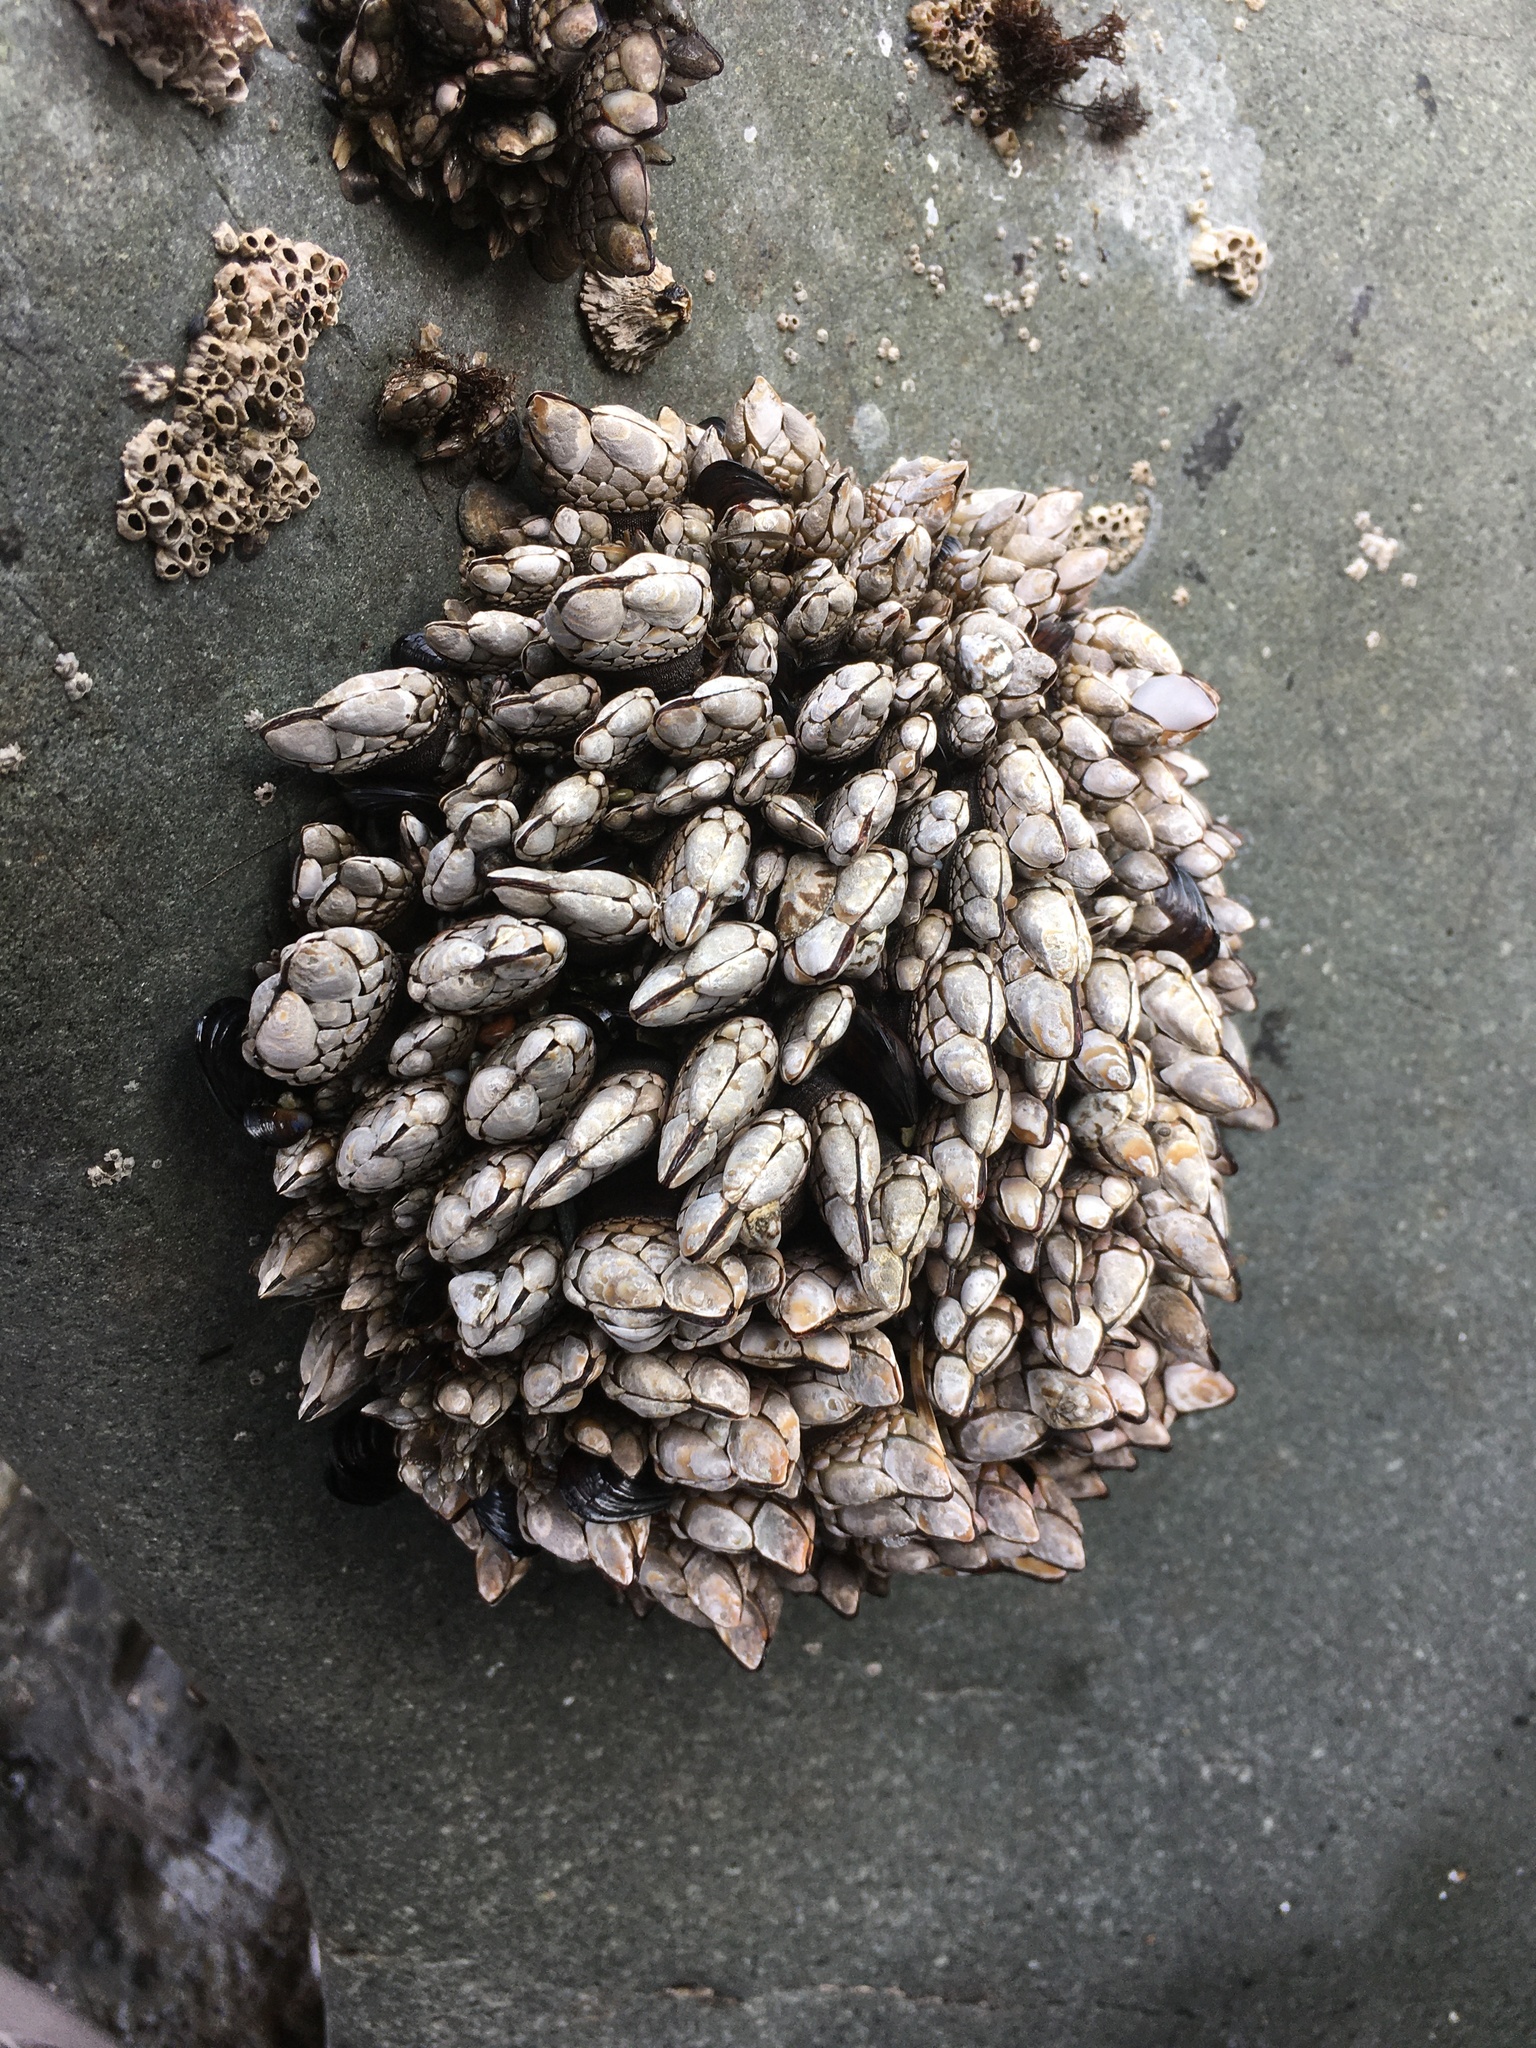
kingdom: Animalia
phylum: Arthropoda
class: Maxillopoda
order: Pedunculata
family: Pollicipedidae
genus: Pollicipes
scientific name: Pollicipes polymerus
